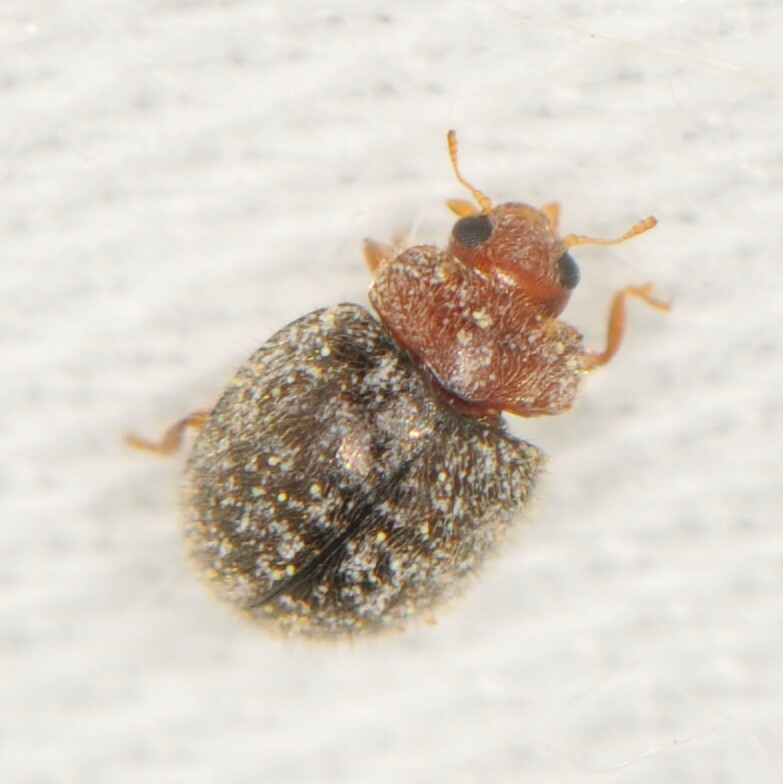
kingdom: Animalia
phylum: Arthropoda
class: Insecta
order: Coleoptera
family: Coccinellidae
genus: Rhyzobius
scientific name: Rhyzobius lophanthae
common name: Scale-eating ladybird beetle
